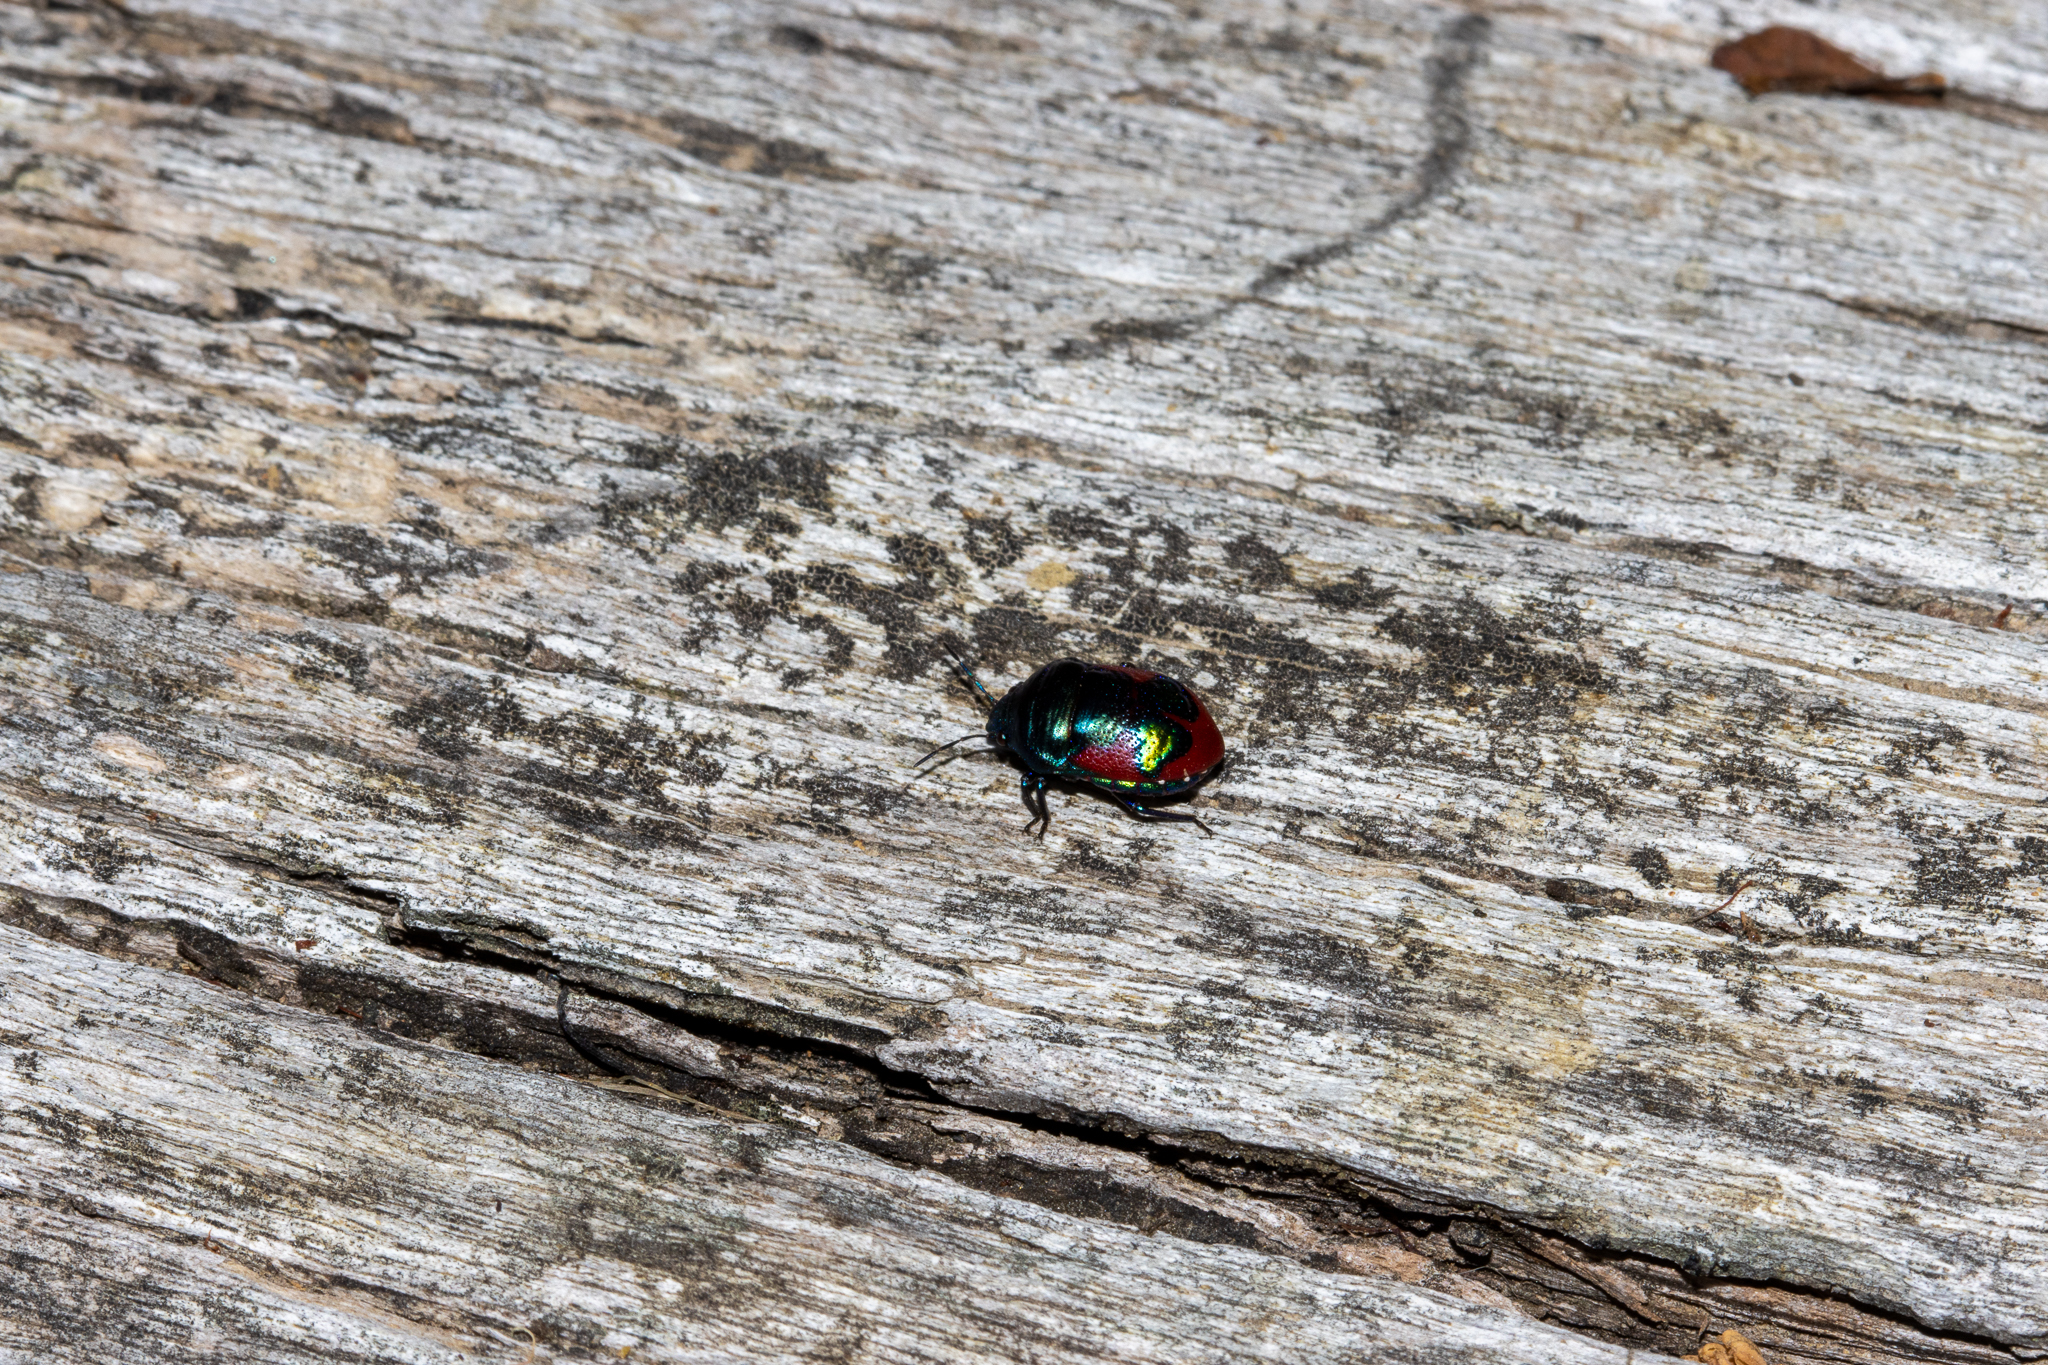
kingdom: Animalia
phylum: Arthropoda
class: Insecta
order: Hemiptera
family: Scutelleridae
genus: Choerocoris
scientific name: Choerocoris paganus
